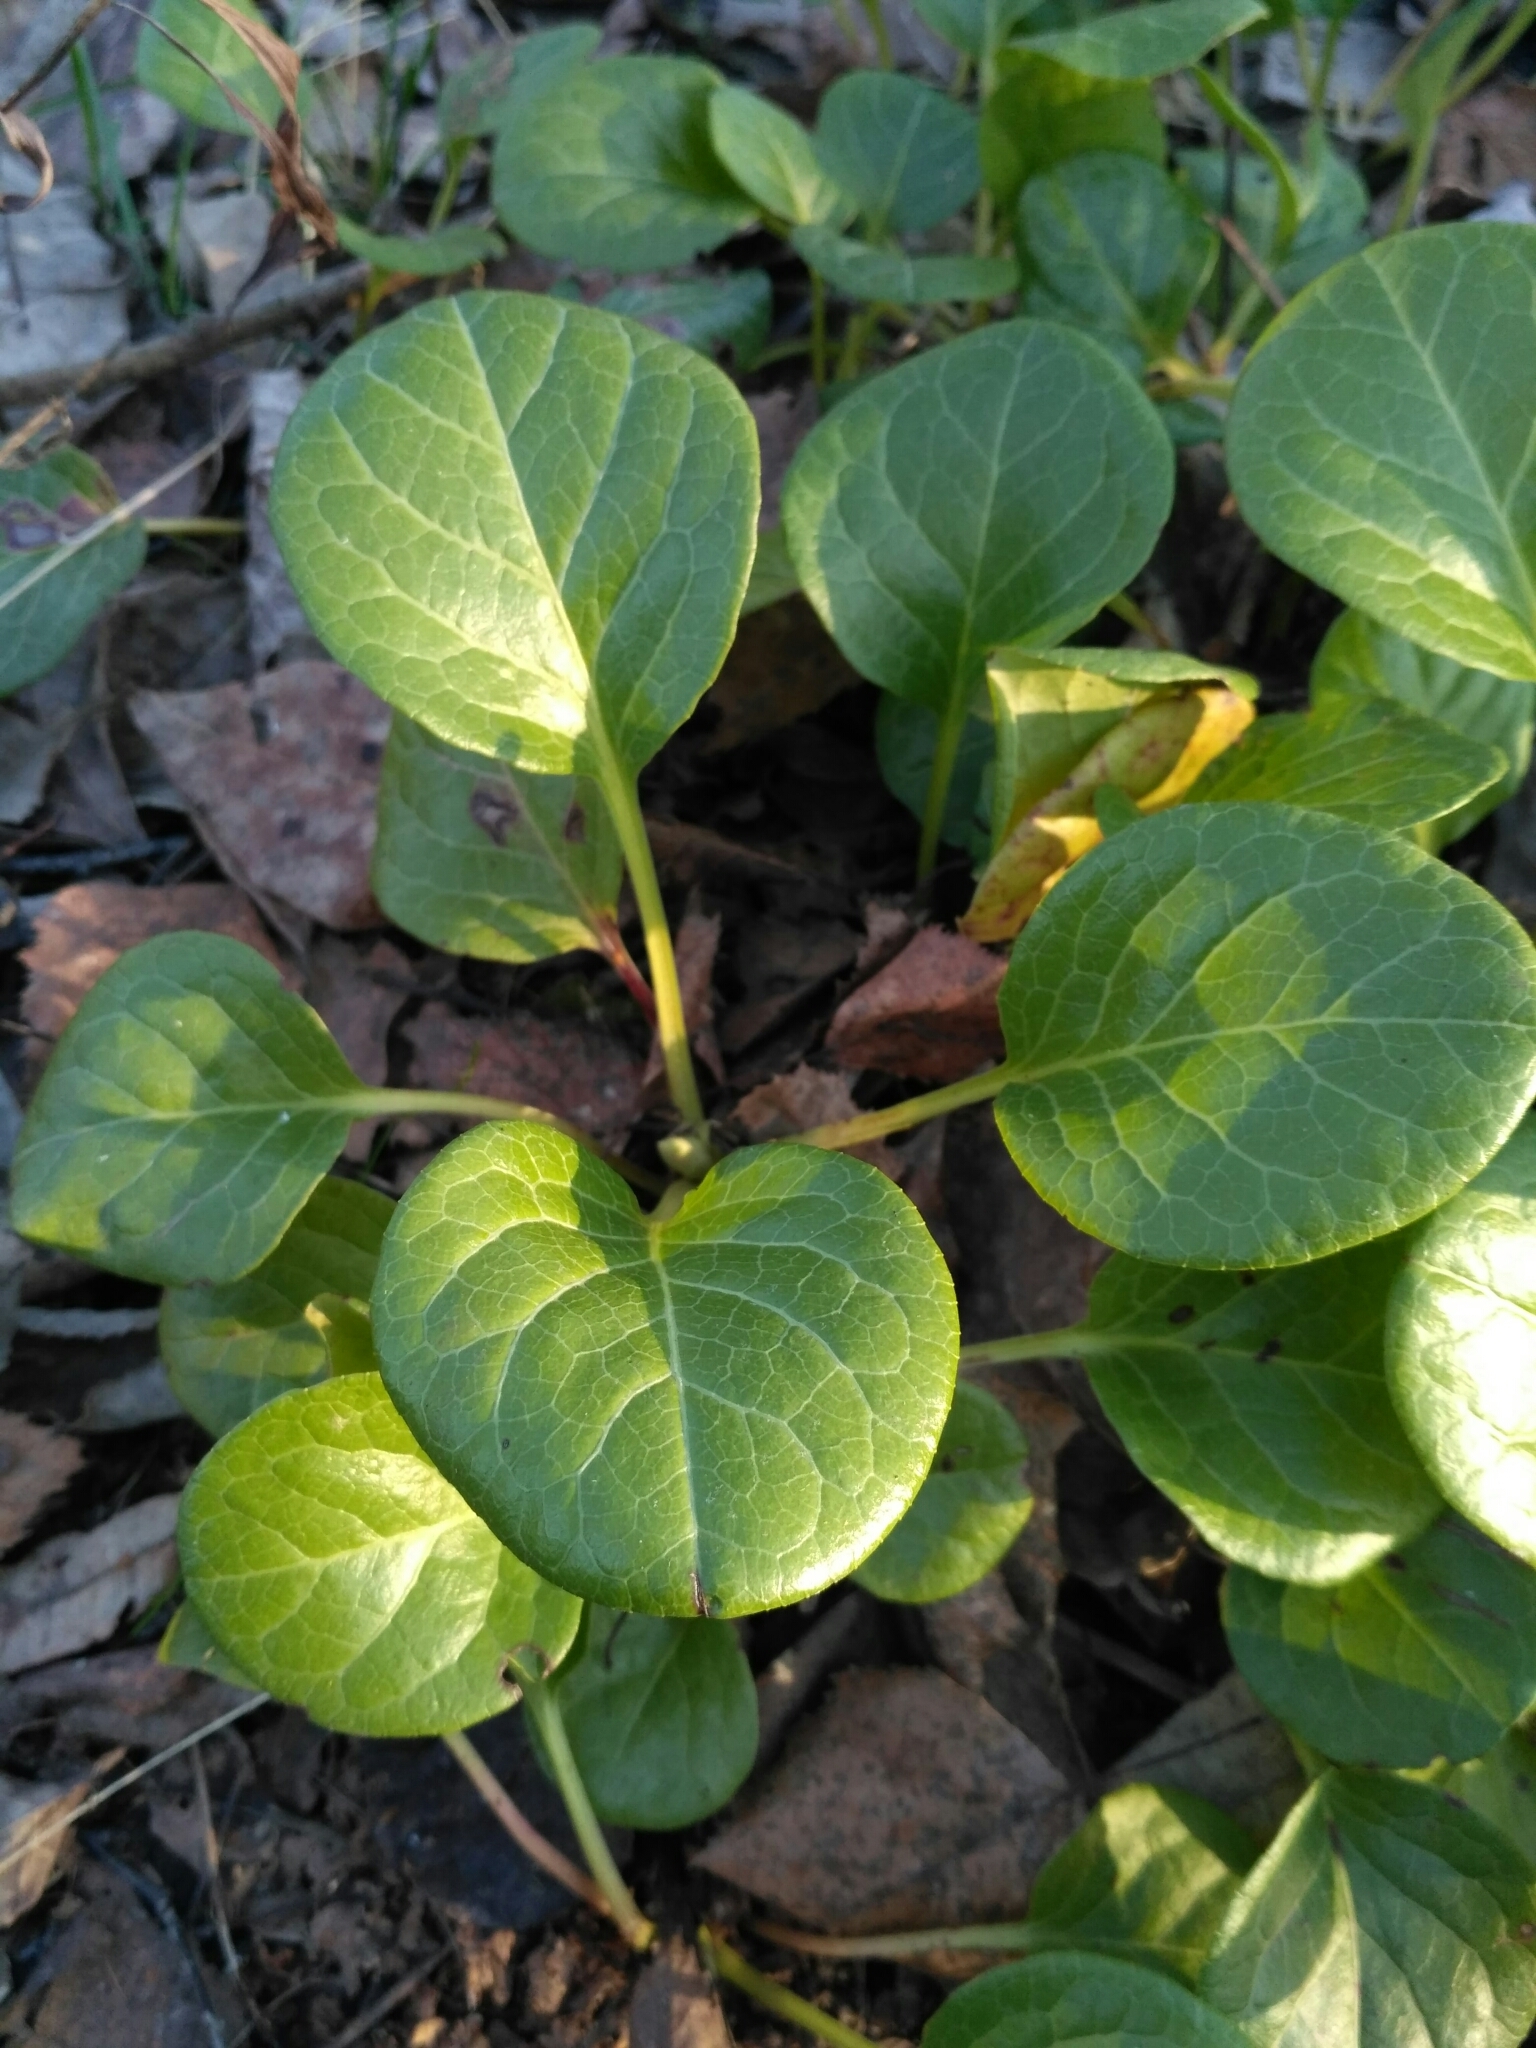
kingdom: Plantae
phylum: Tracheophyta
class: Magnoliopsida
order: Ericales
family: Ericaceae
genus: Pyrola
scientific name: Pyrola rotundifolia
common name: Round-leaved wintergreen
